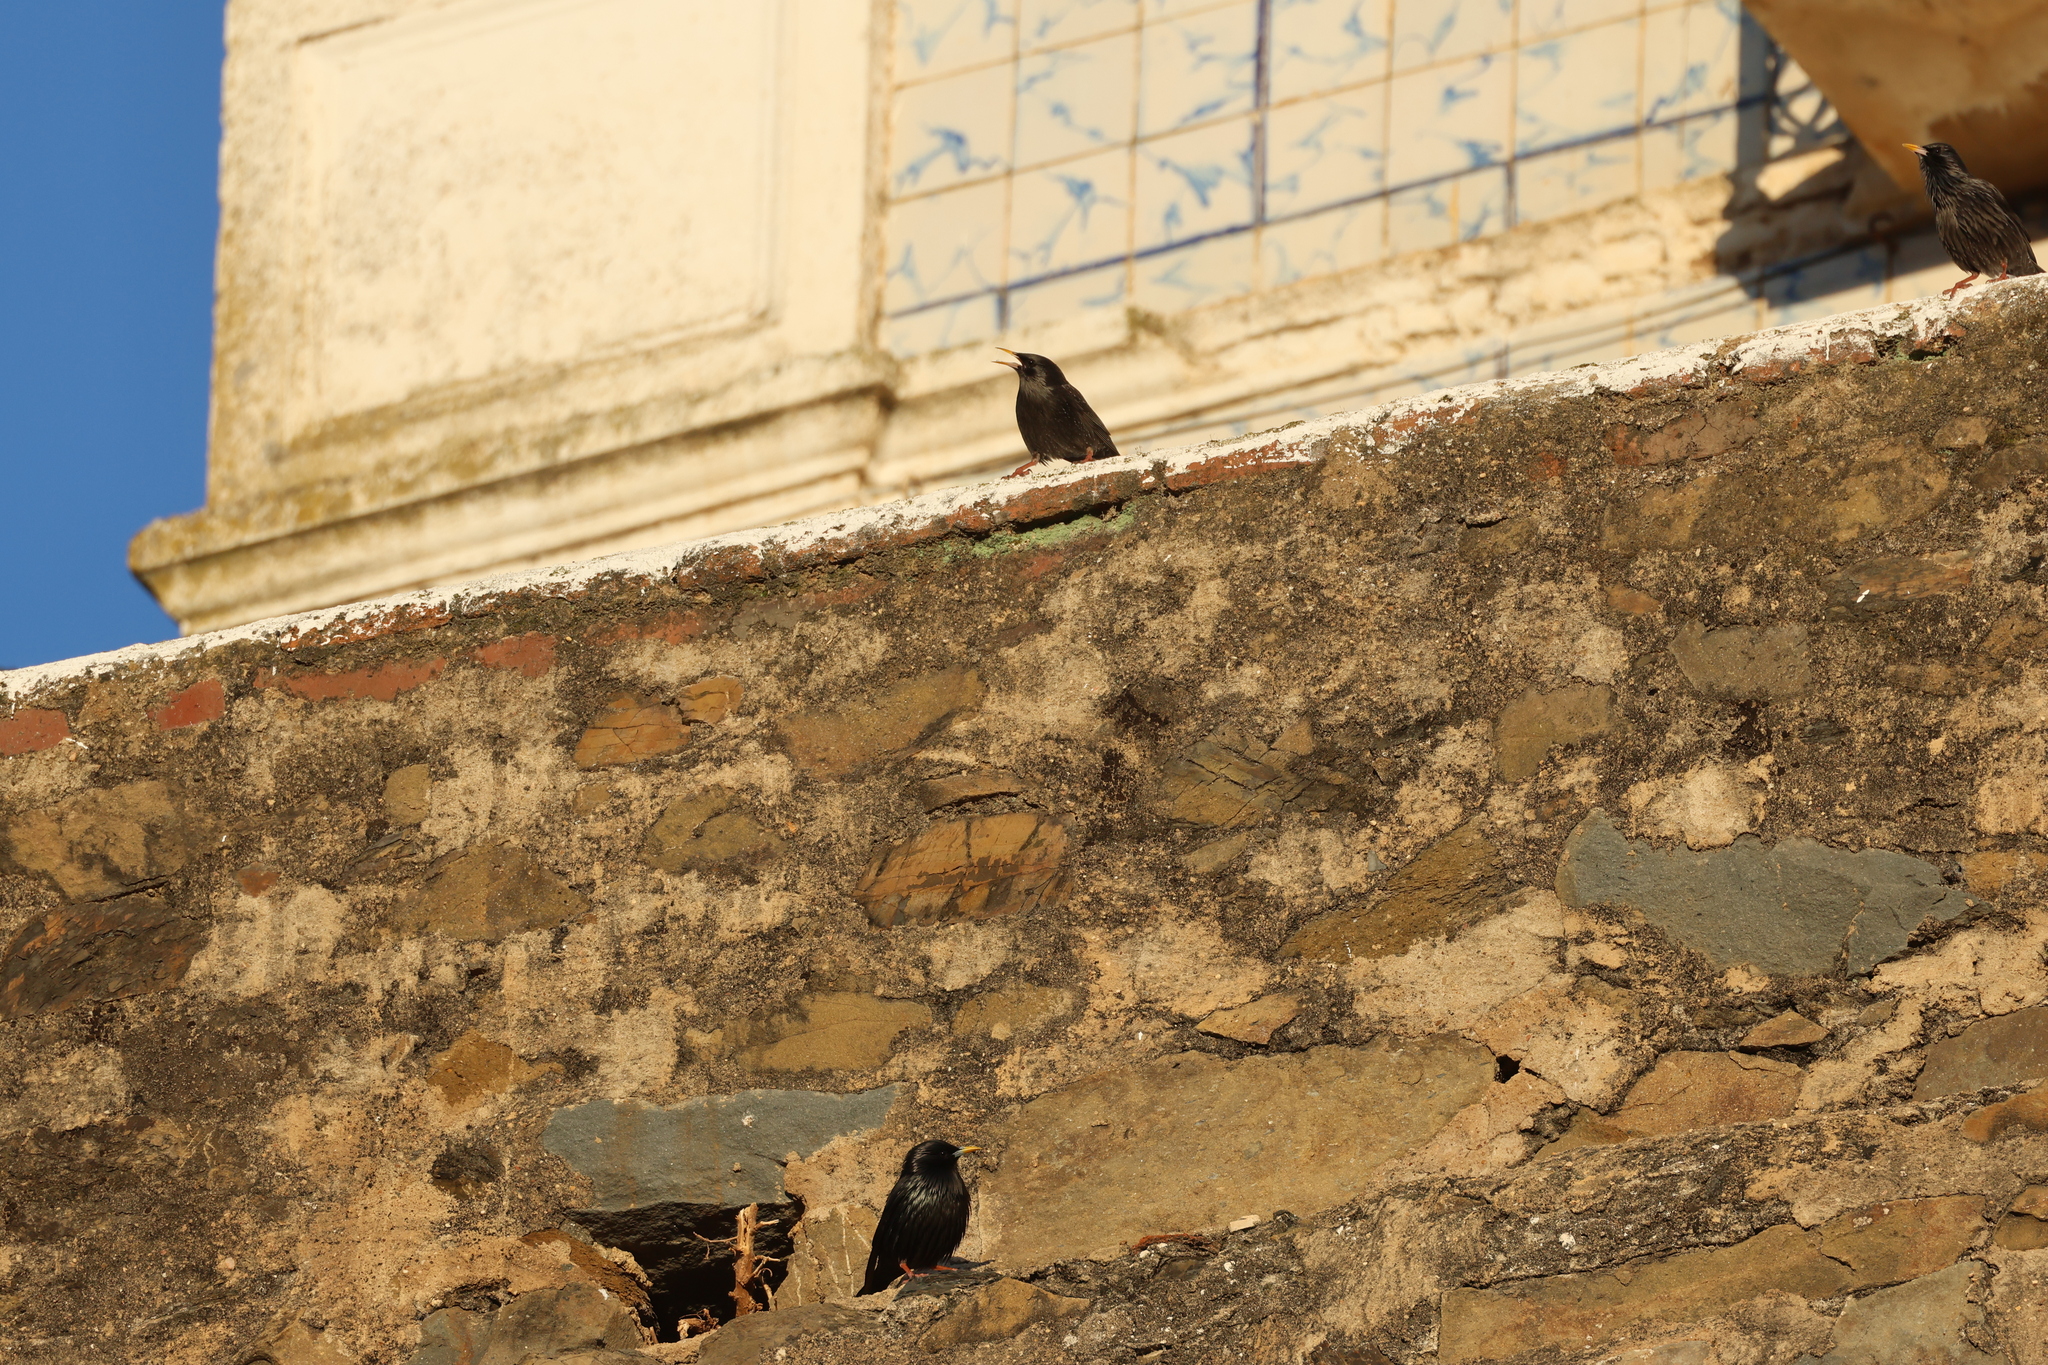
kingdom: Animalia
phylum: Chordata
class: Aves
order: Passeriformes
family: Sturnidae
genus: Sturnus
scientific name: Sturnus unicolor
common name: Spotless starling
